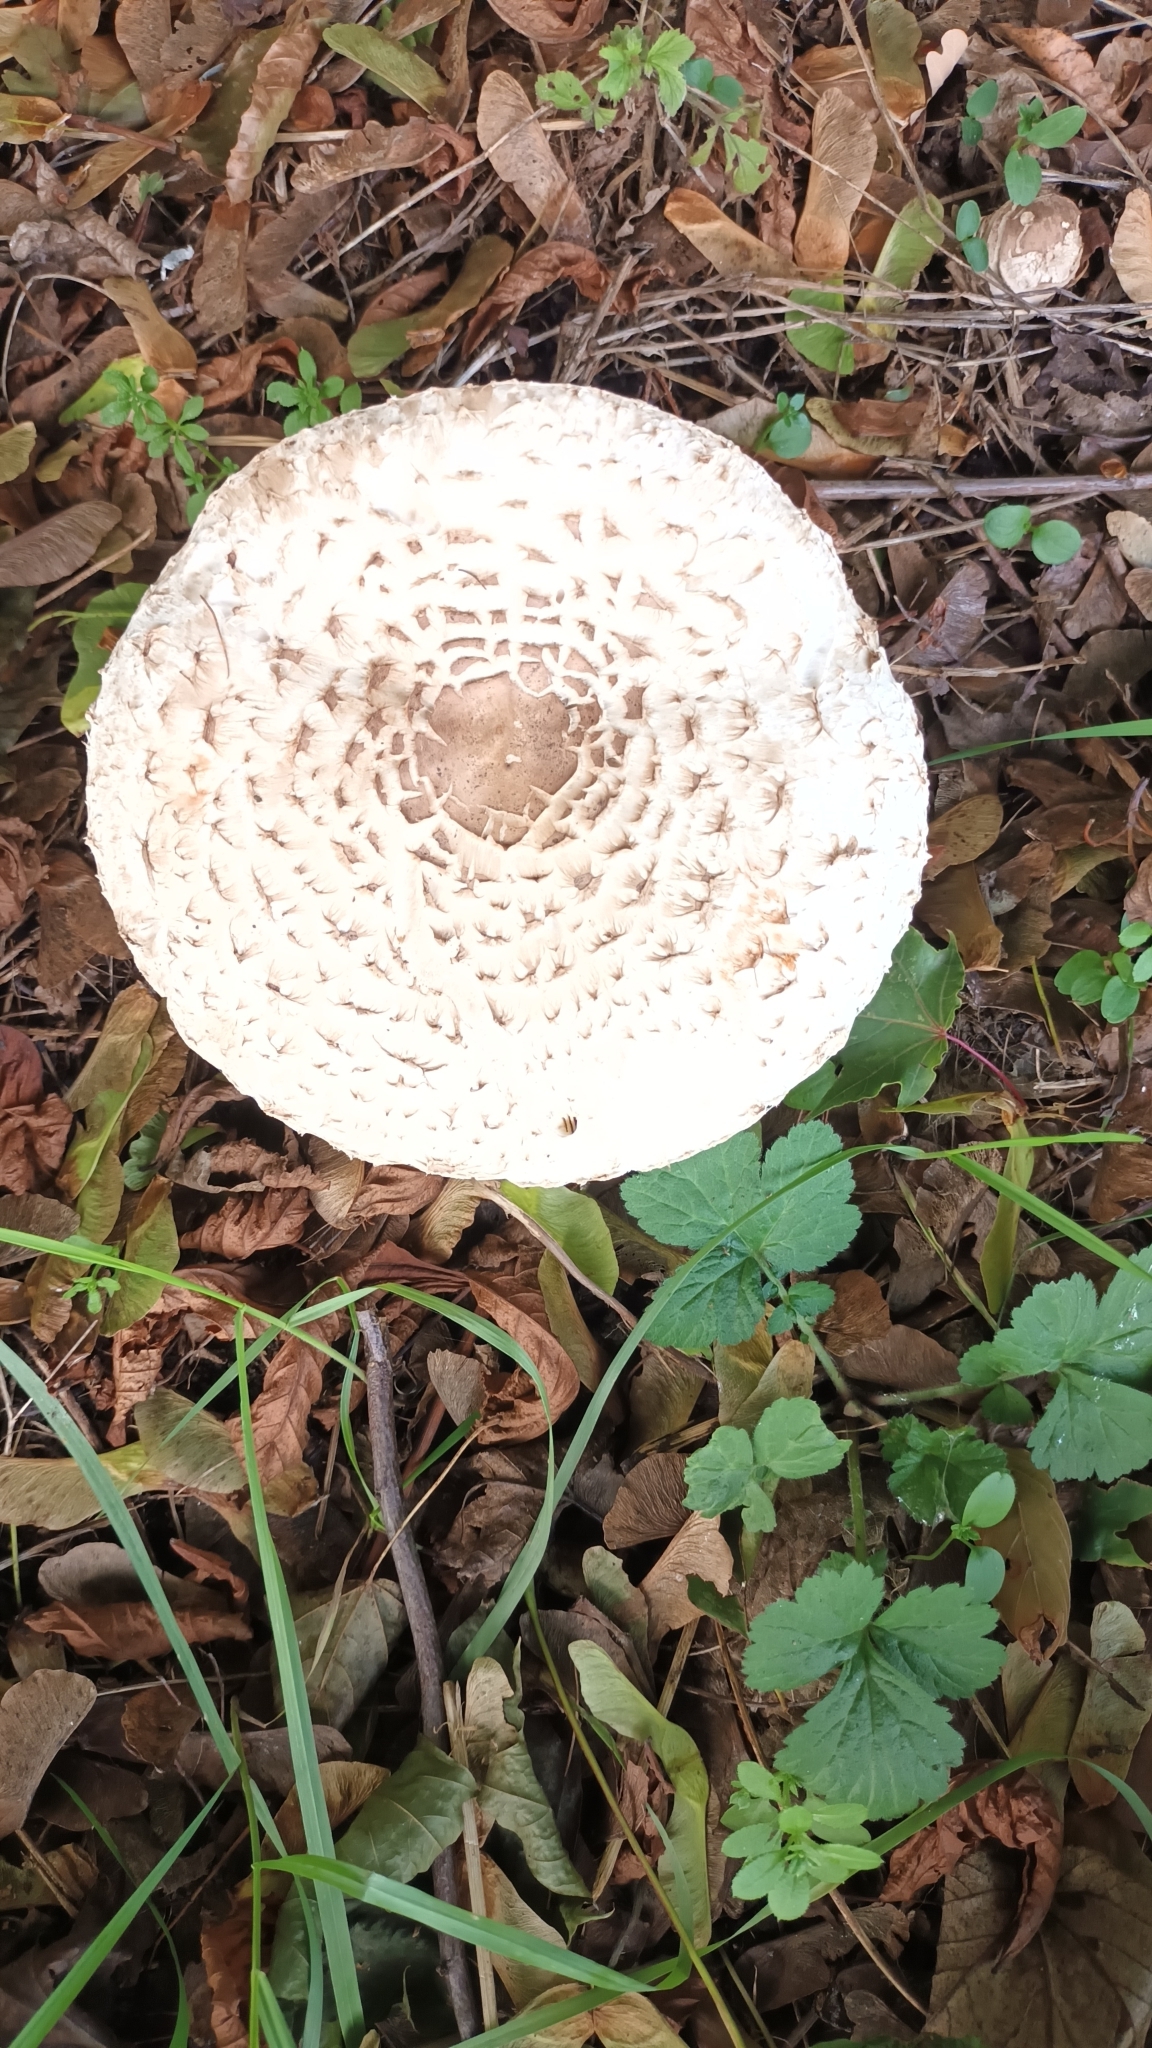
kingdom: Fungi
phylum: Basidiomycota
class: Agaricomycetes
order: Agaricales
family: Agaricaceae
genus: Chlorophyllum
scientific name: Chlorophyllum rhacodes
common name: Shaggy parasol
